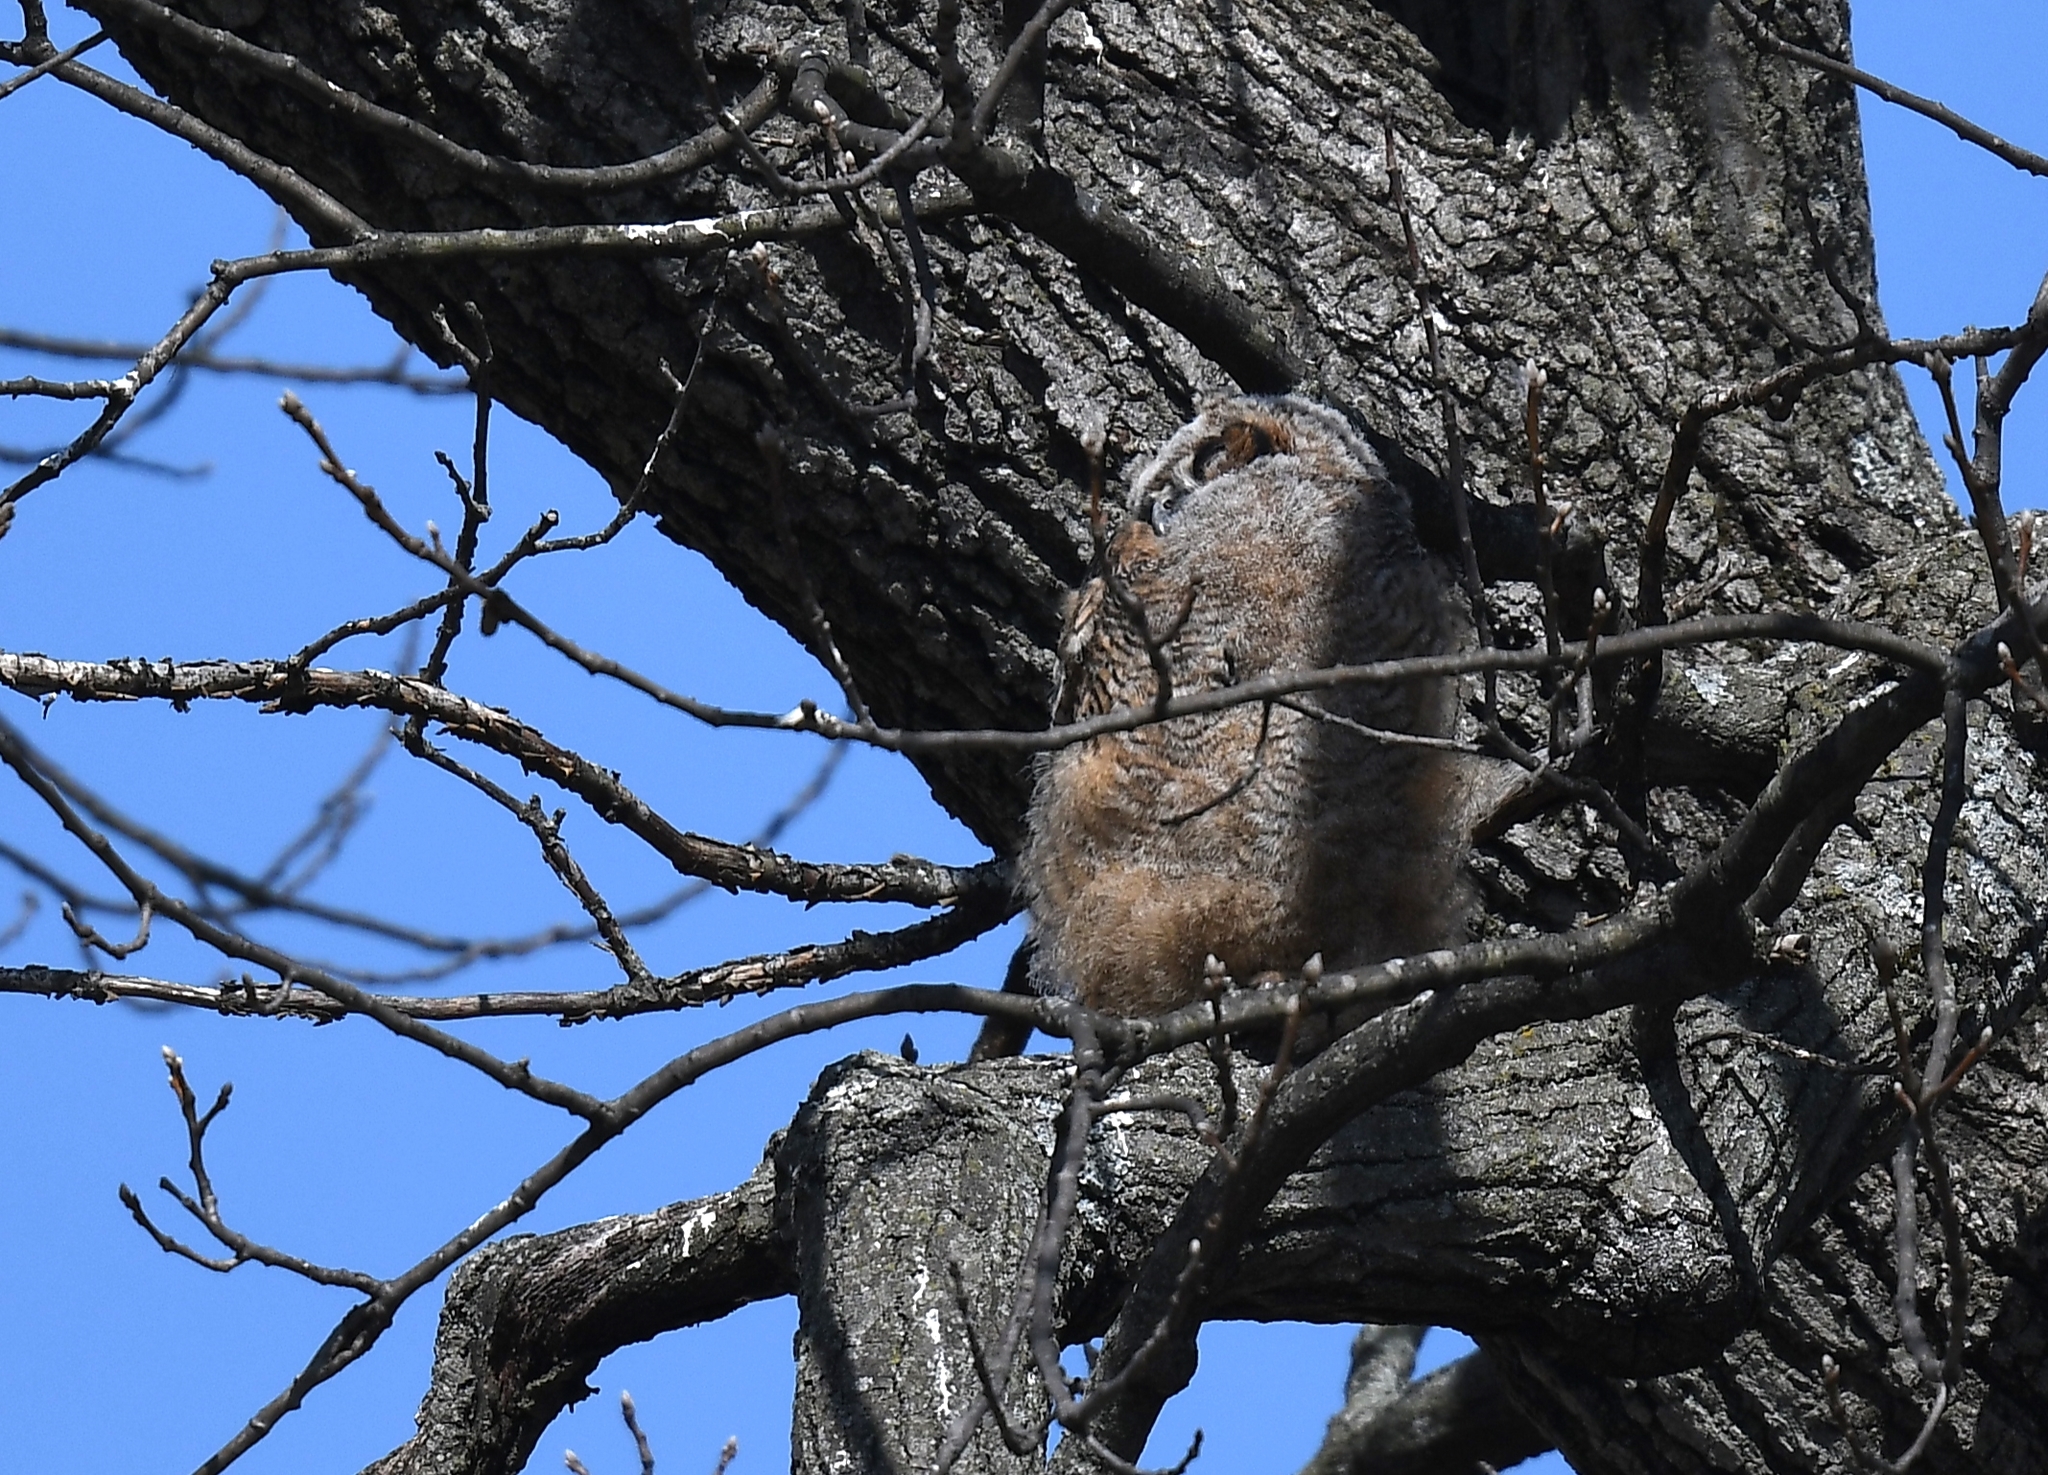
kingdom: Animalia
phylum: Chordata
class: Aves
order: Strigiformes
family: Strigidae
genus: Bubo
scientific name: Bubo virginianus
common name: Great horned owl
